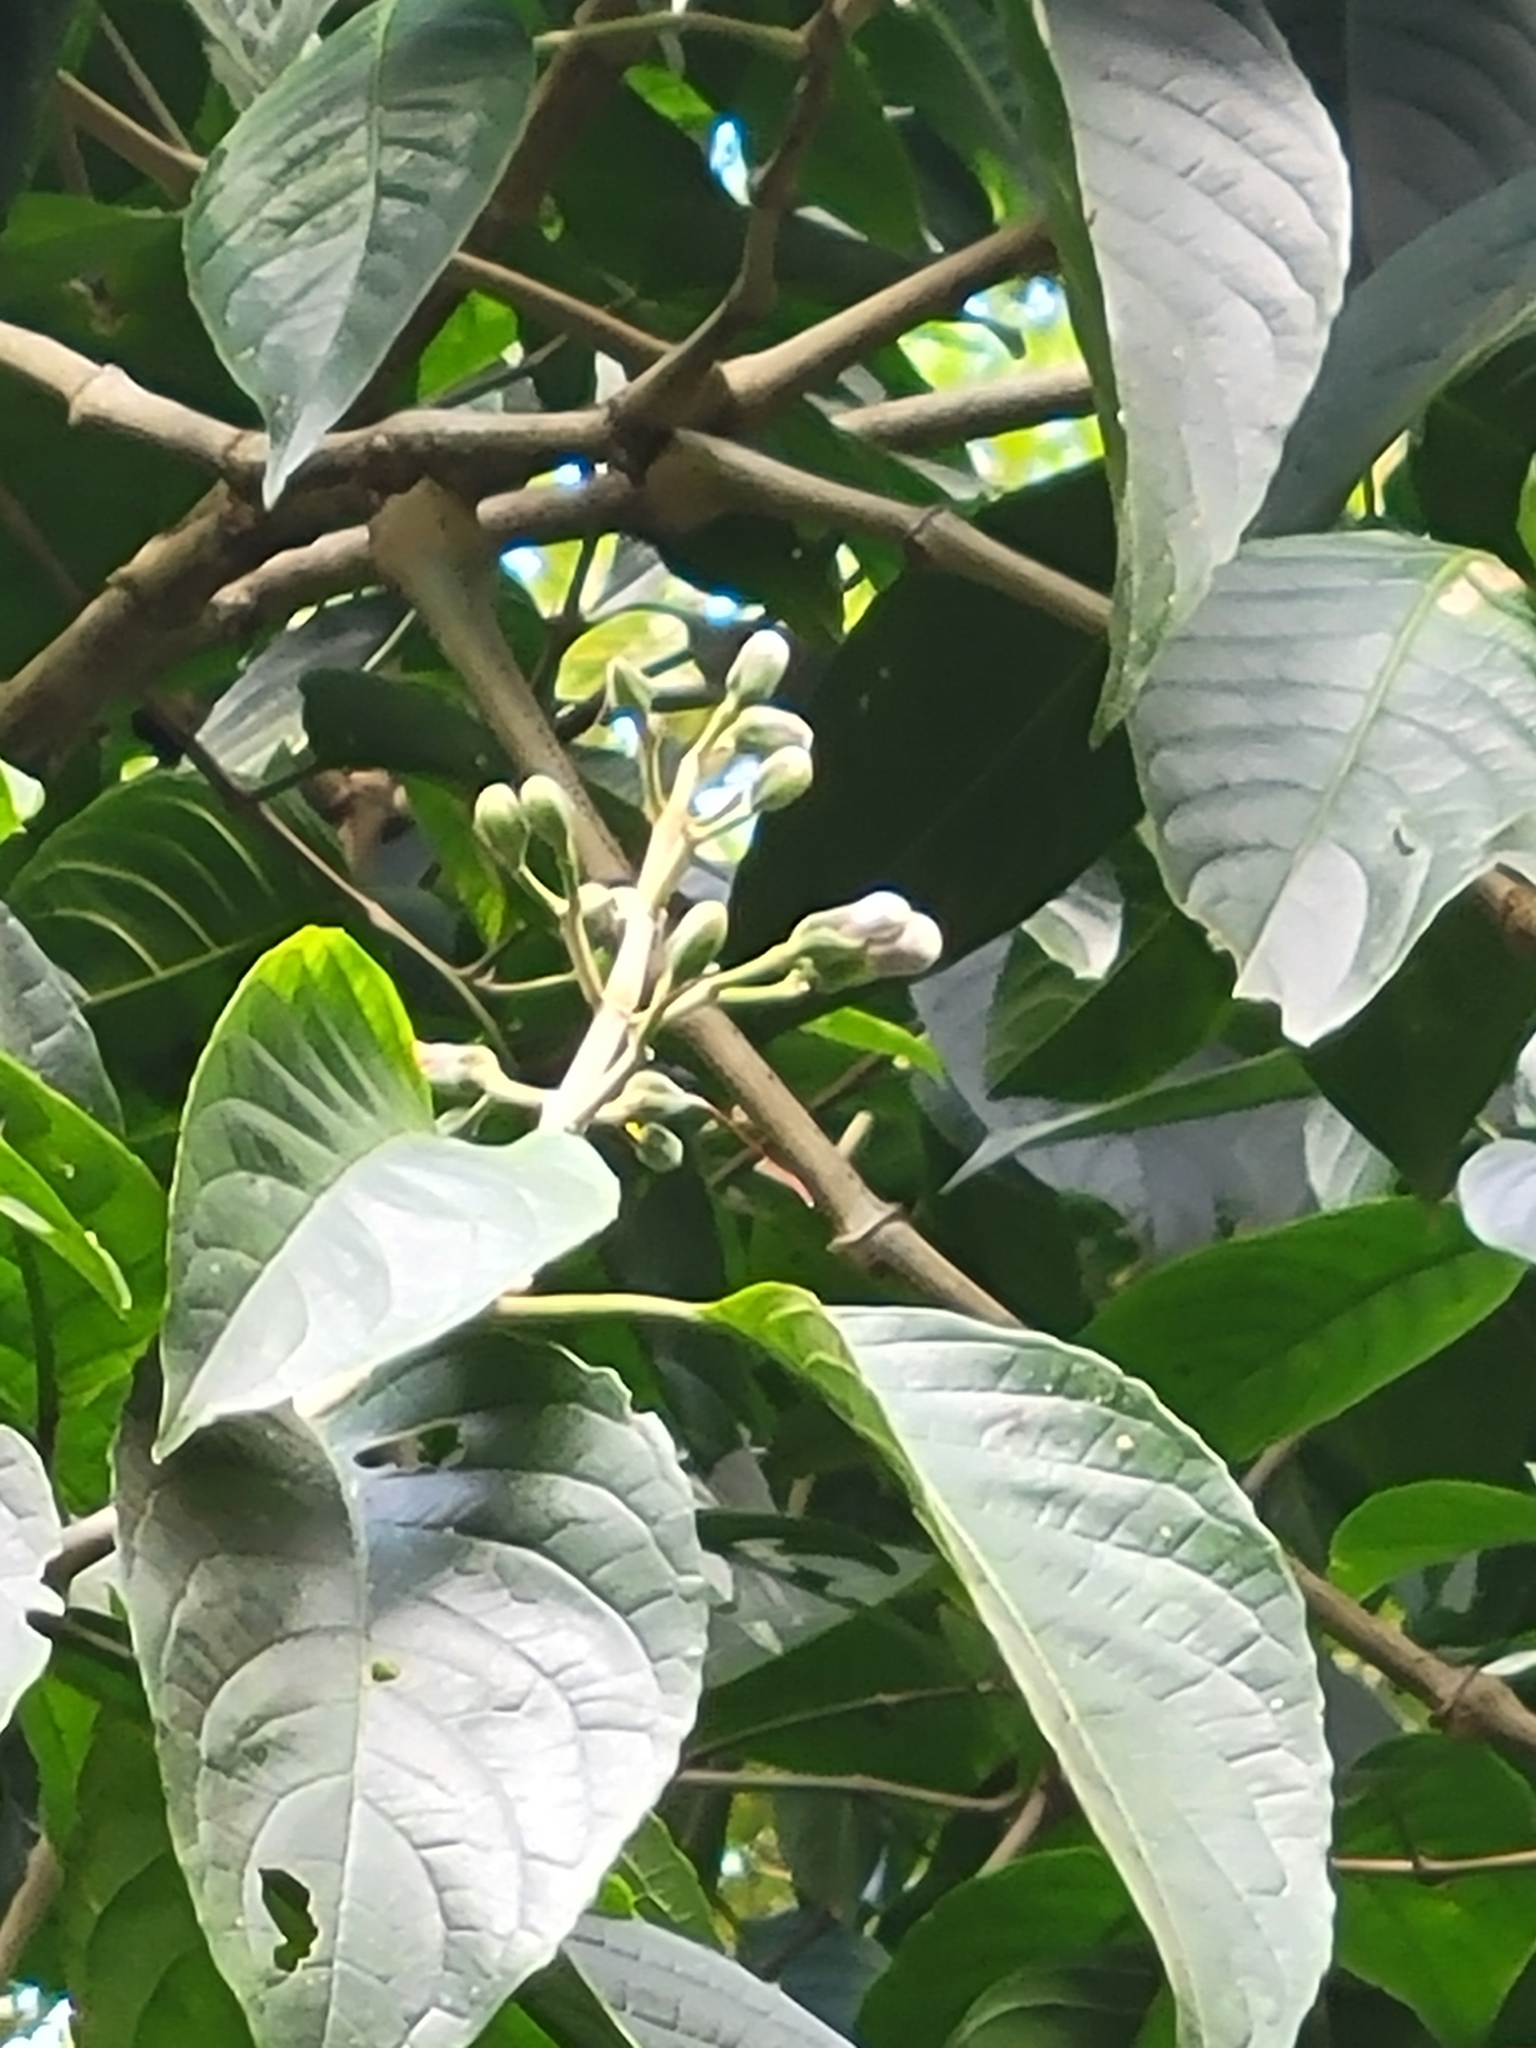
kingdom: Plantae
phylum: Tracheophyta
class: Magnoliopsida
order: Lamiales
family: Acanthaceae
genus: Trichanthera
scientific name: Trichanthera gigantea
